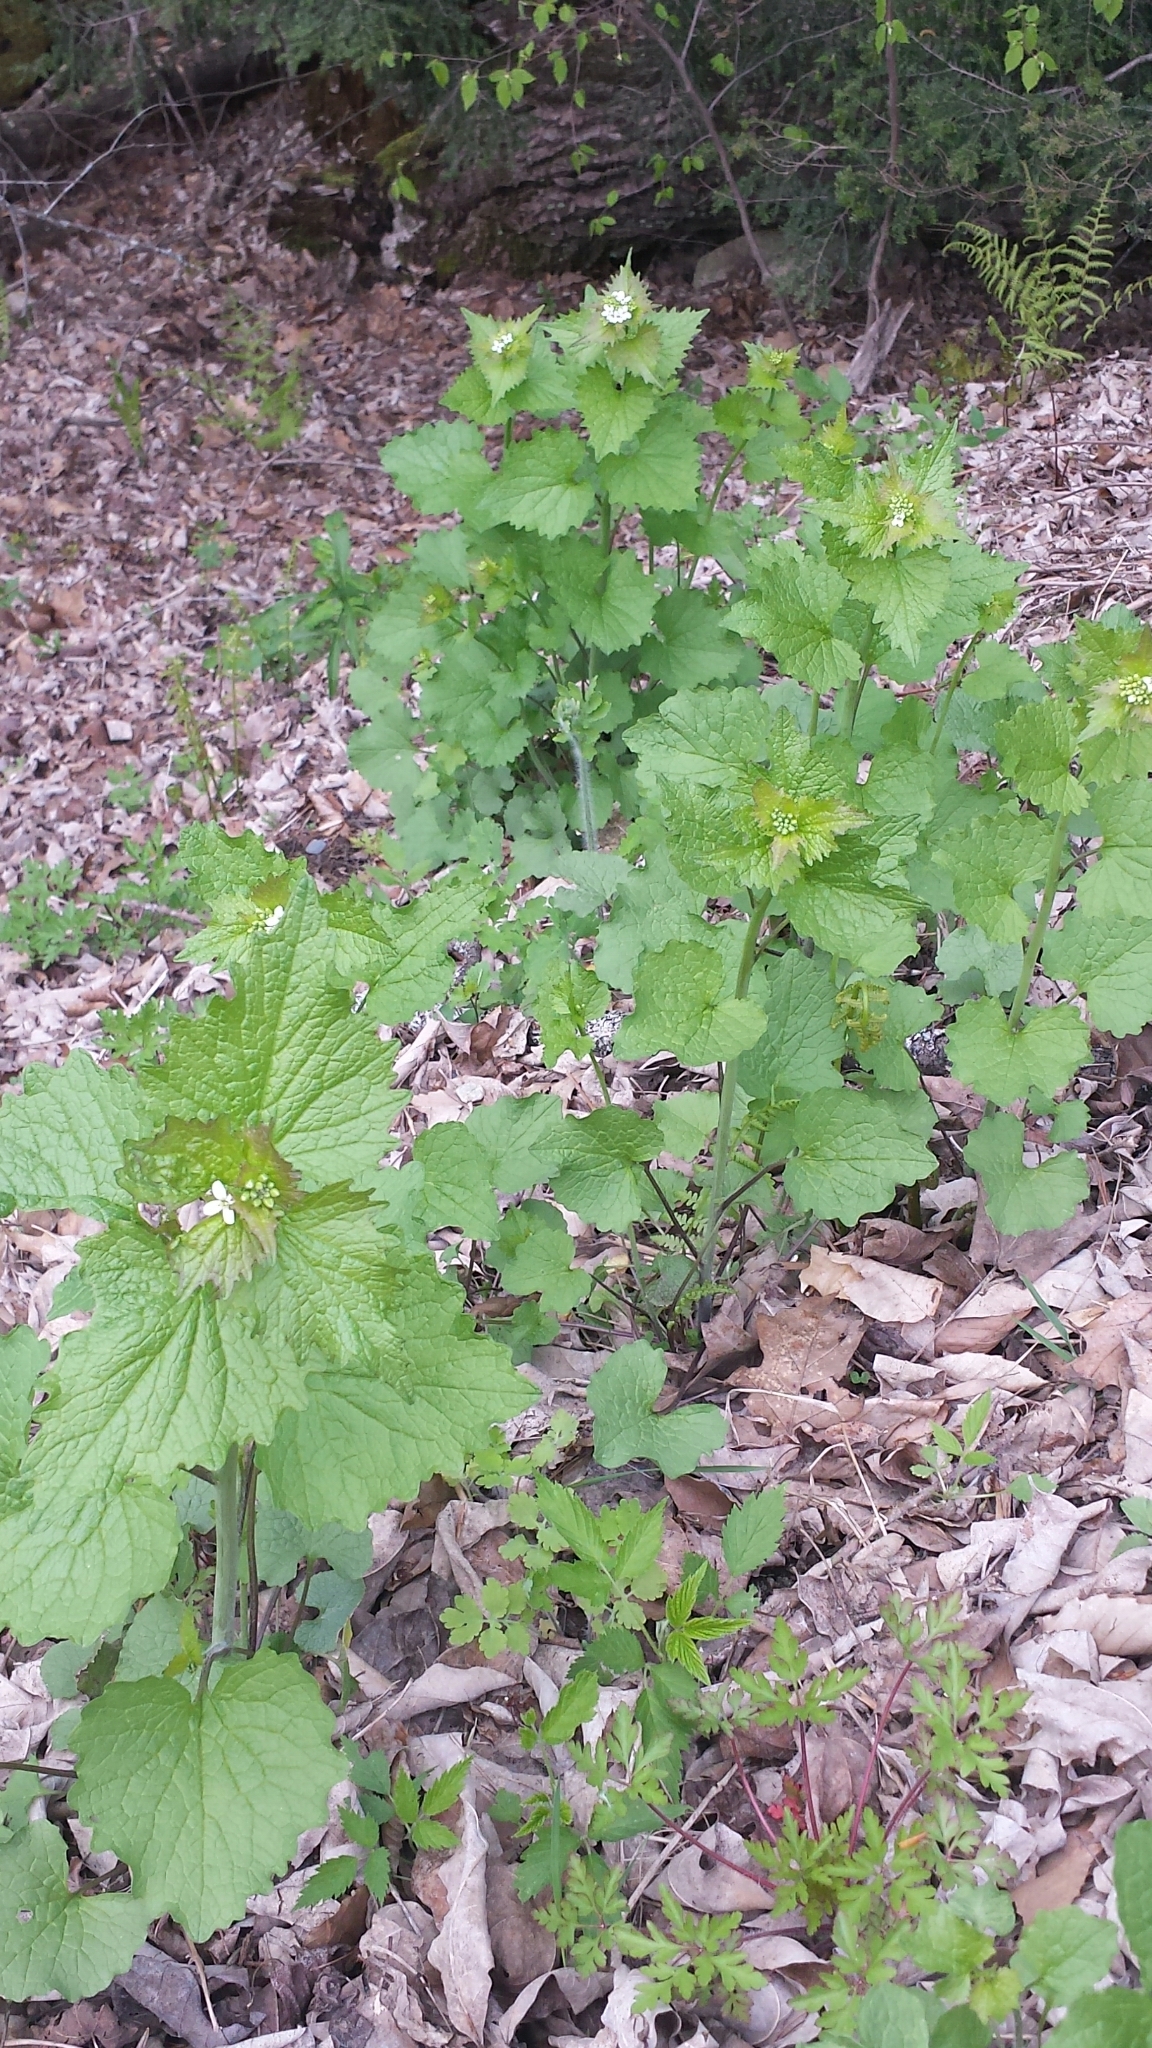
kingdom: Plantae
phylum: Tracheophyta
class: Magnoliopsida
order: Brassicales
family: Brassicaceae
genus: Alliaria
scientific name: Alliaria petiolata
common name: Garlic mustard
